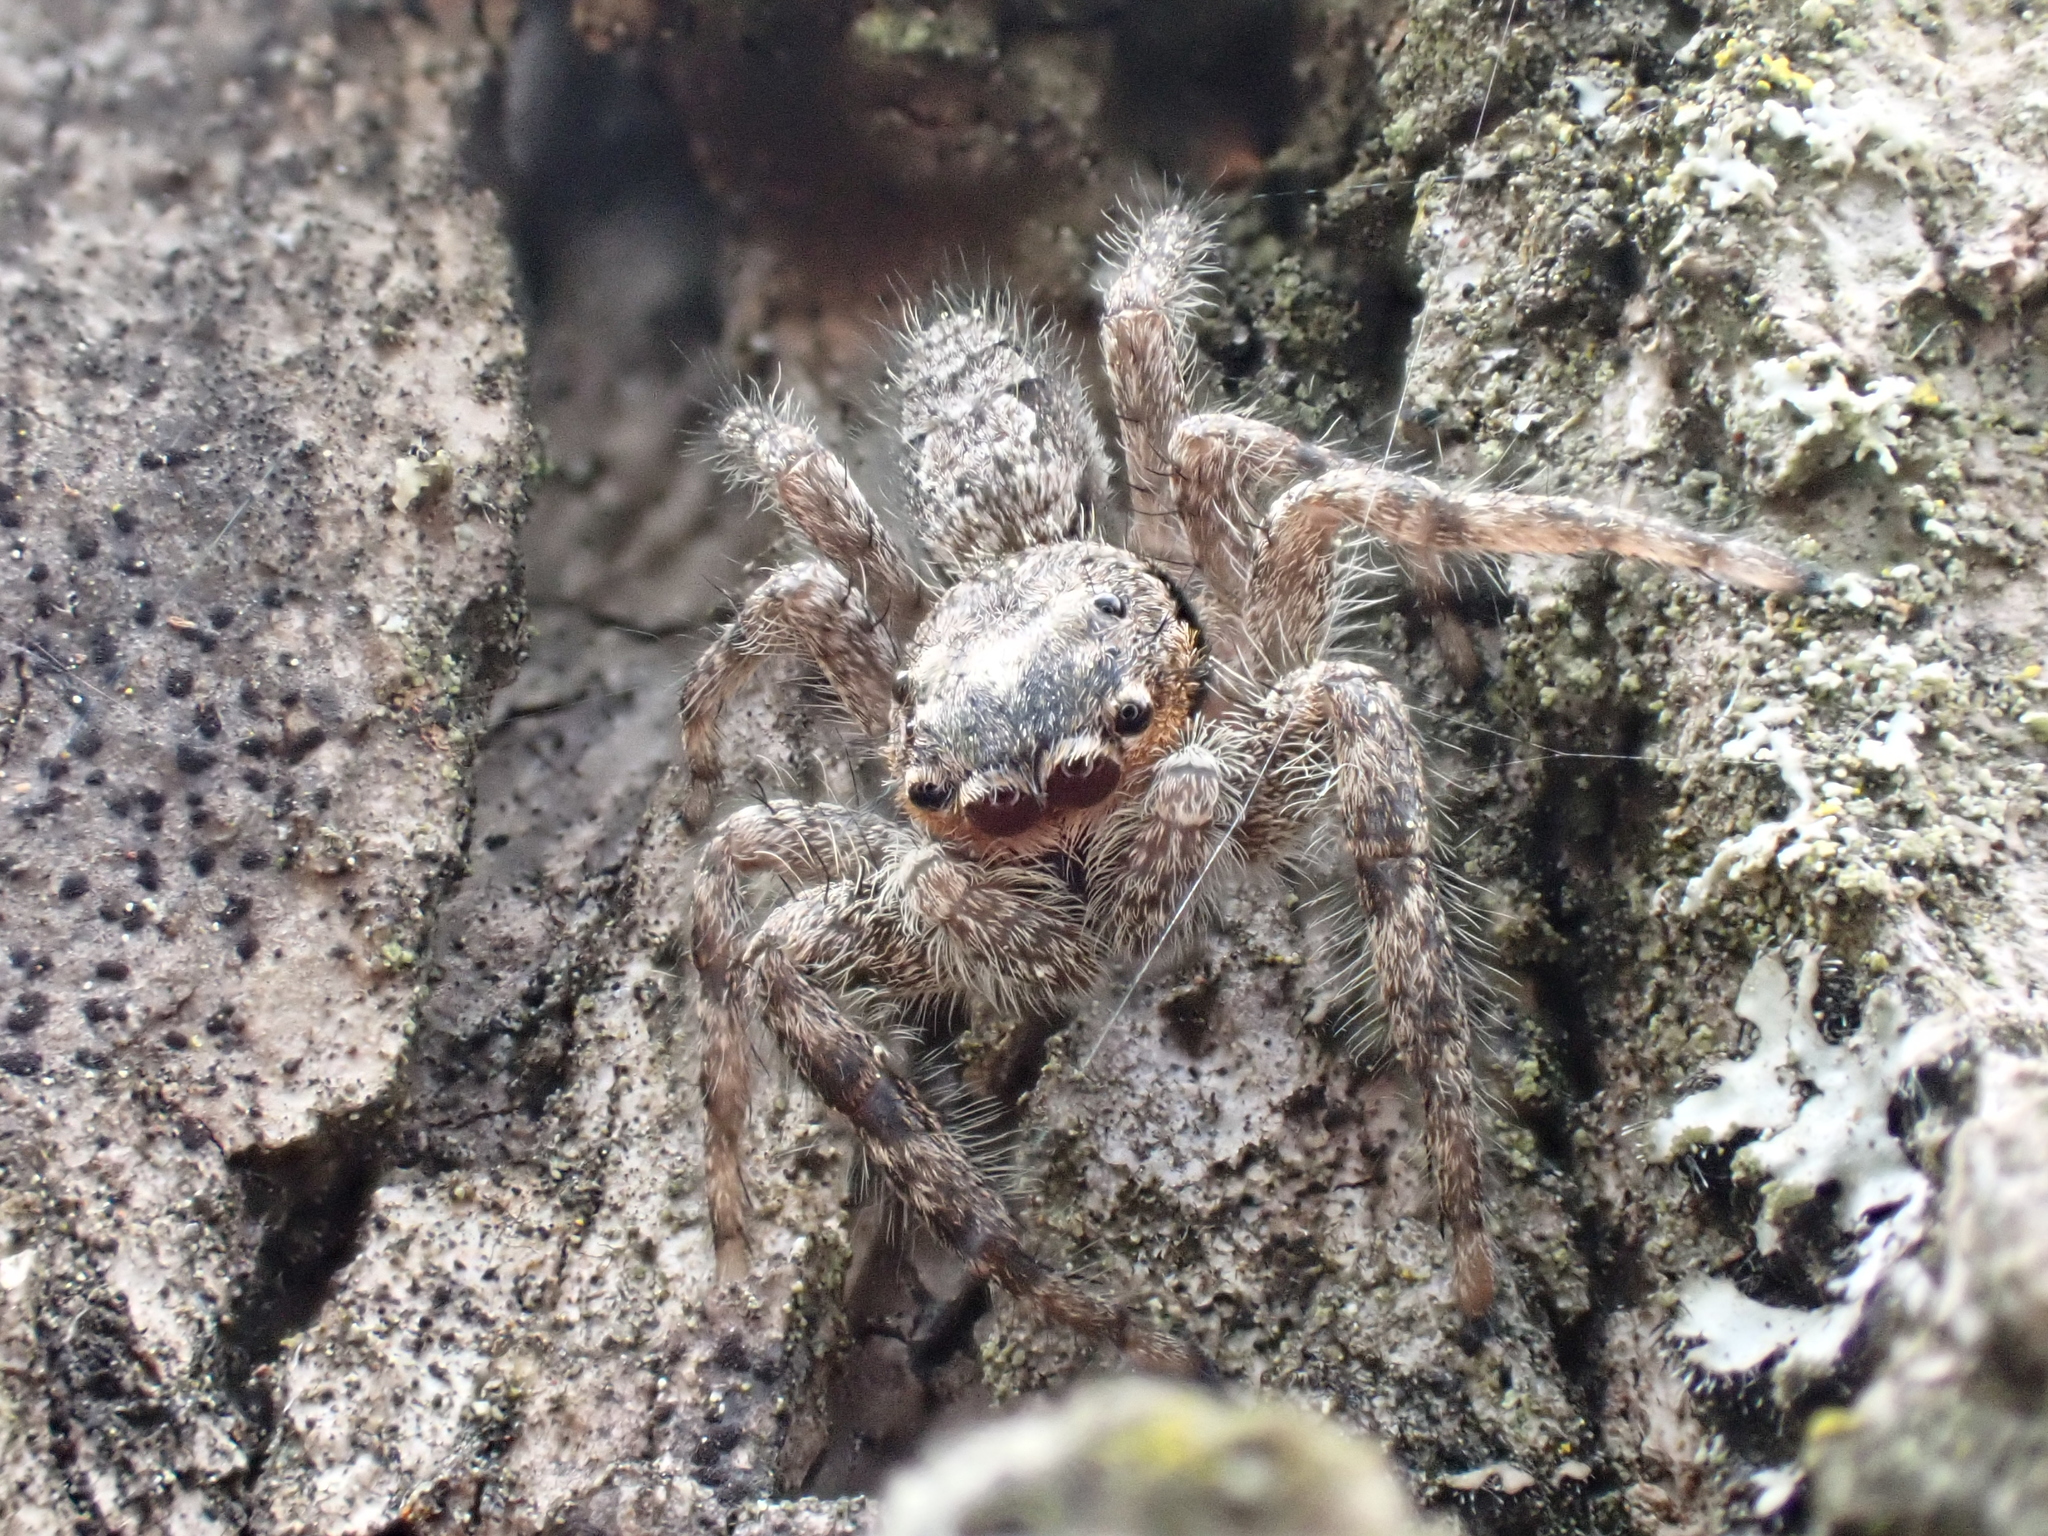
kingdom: Animalia
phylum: Arthropoda
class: Arachnida
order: Araneae
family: Salticidae
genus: Platycryptus
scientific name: Platycryptus undatus
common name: Tan jumping spider
